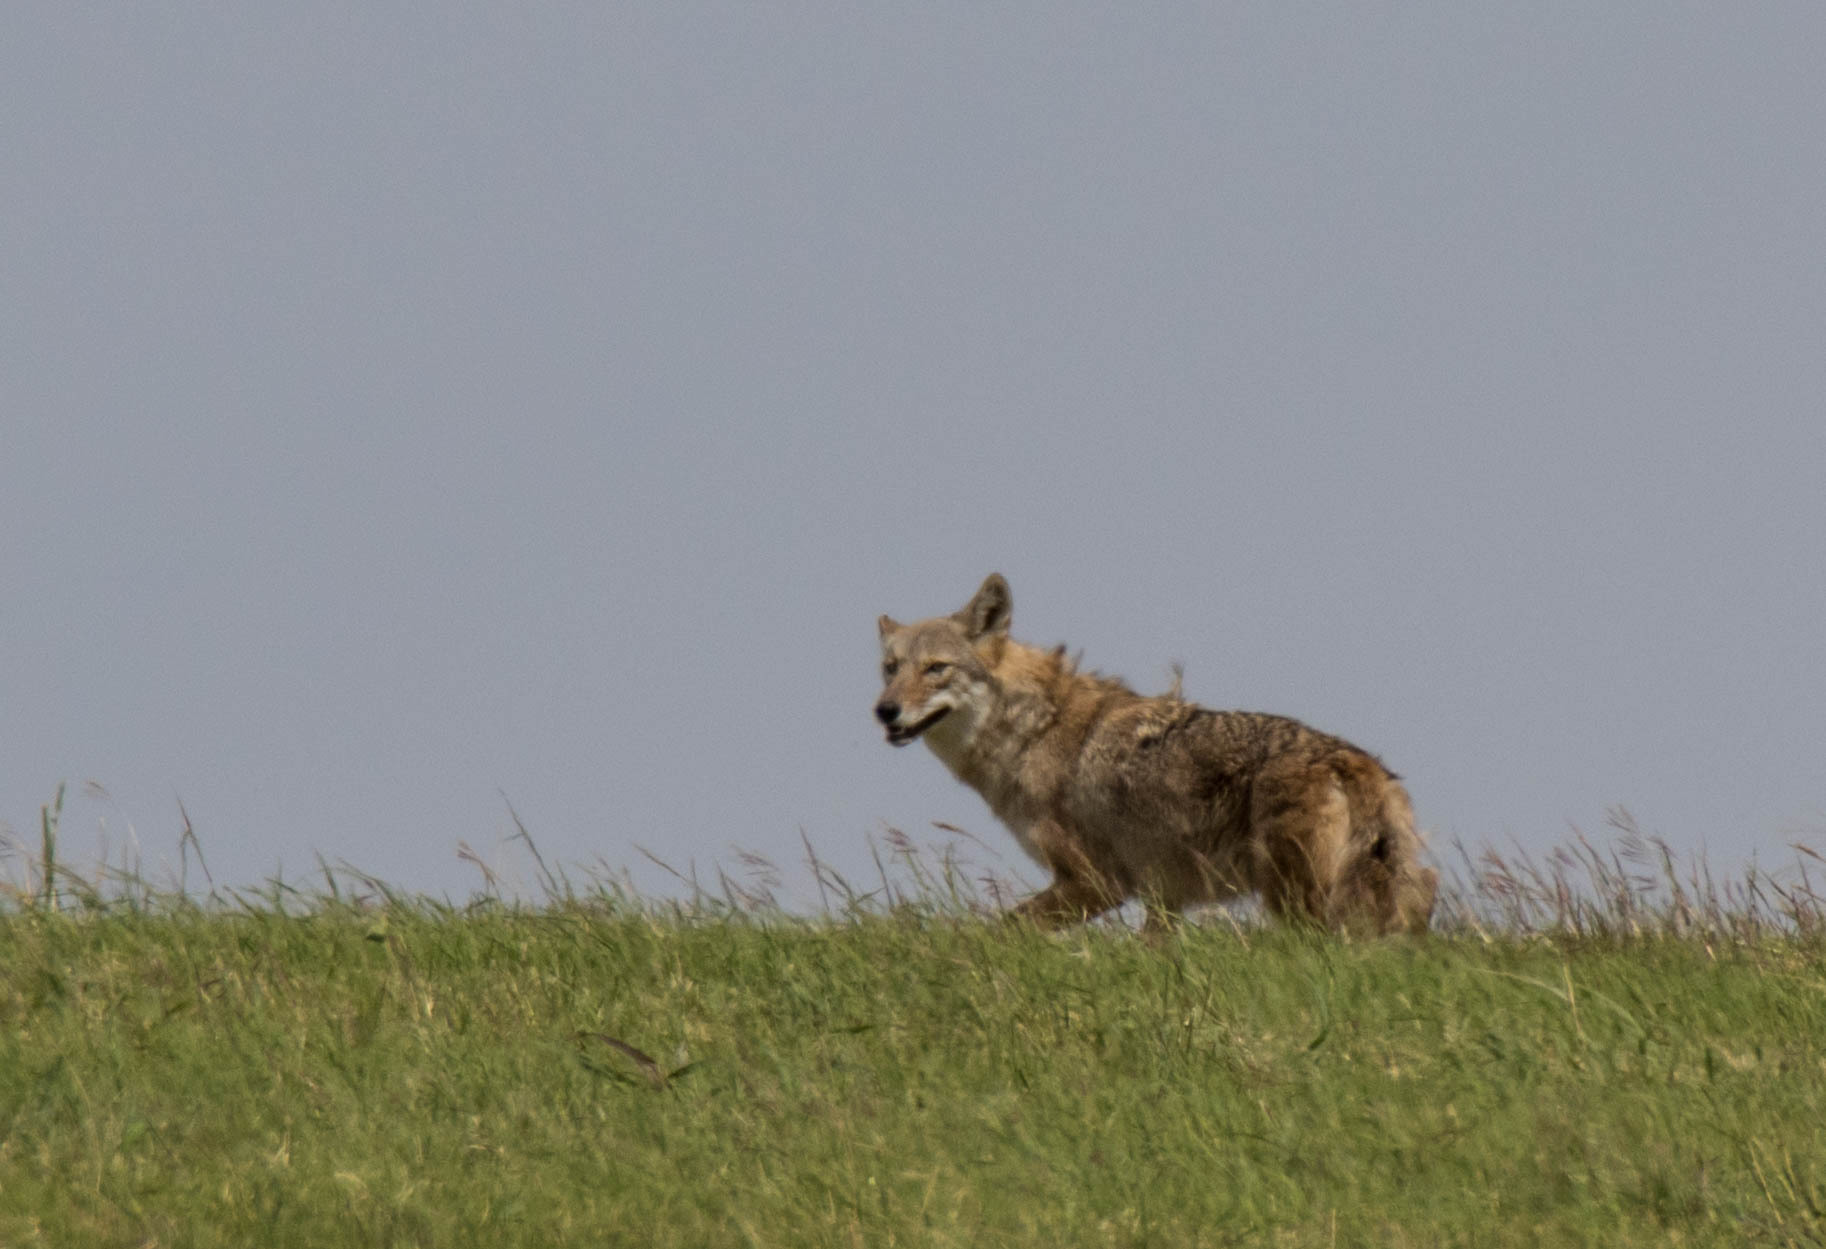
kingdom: Animalia
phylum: Chordata
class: Mammalia
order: Carnivora
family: Canidae
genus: Canis
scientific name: Canis latrans
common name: Coyote
